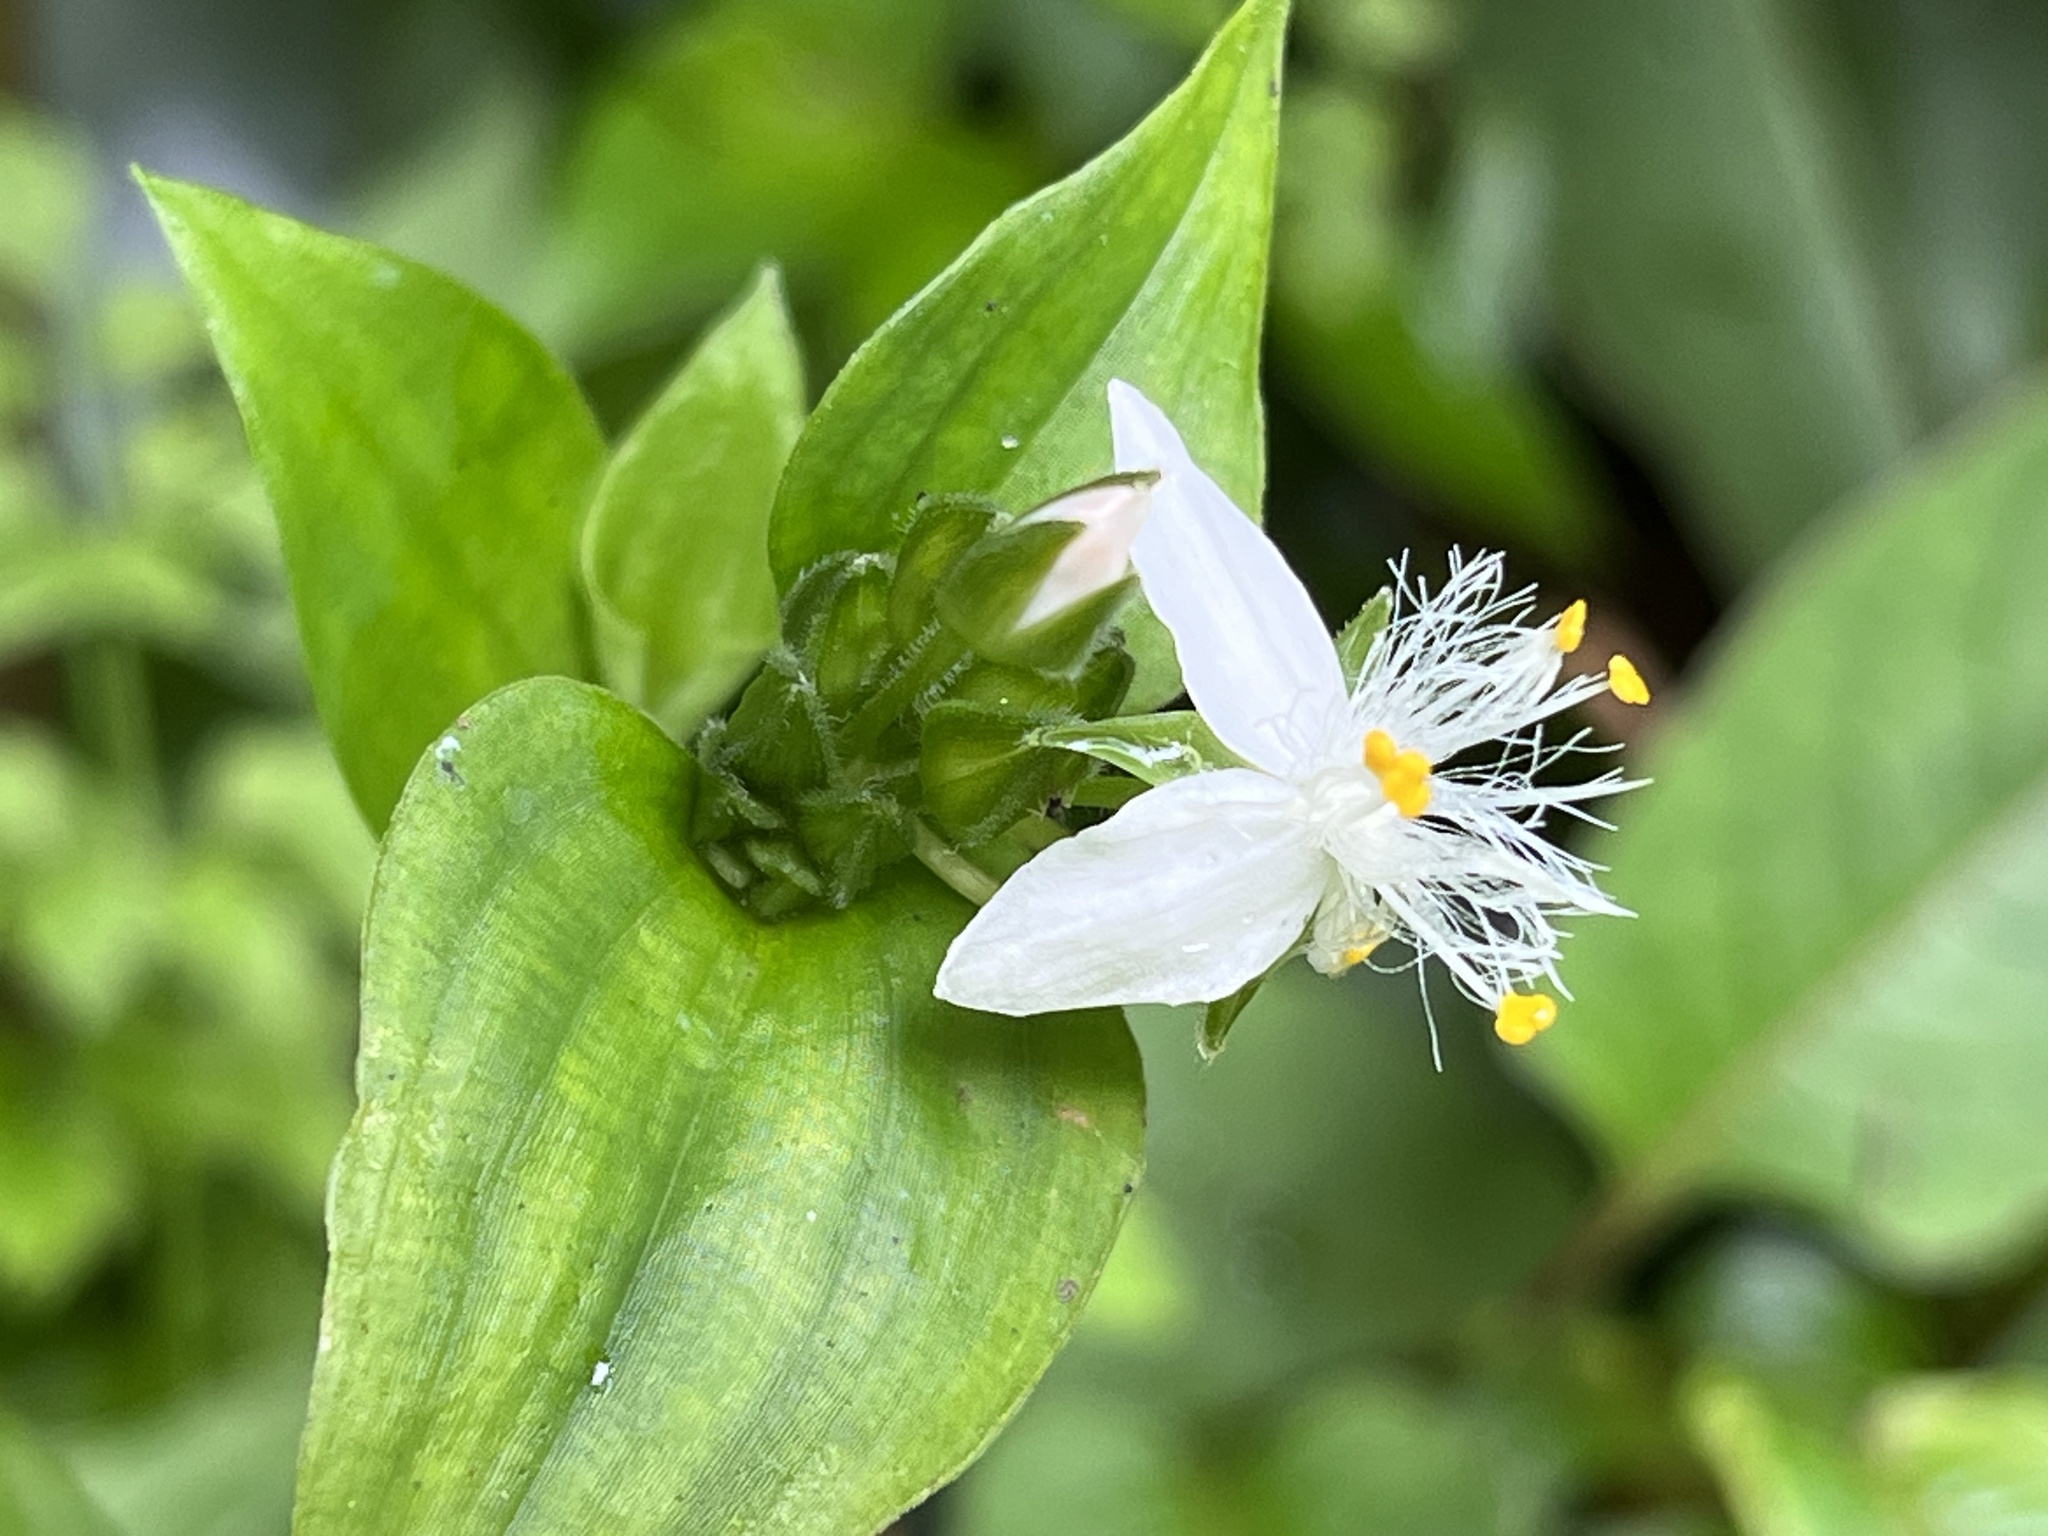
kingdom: Plantae
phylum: Tracheophyta
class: Liliopsida
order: Commelinales
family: Commelinaceae
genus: Tradescantia
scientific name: Tradescantia fluminensis
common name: Wandering-jew
